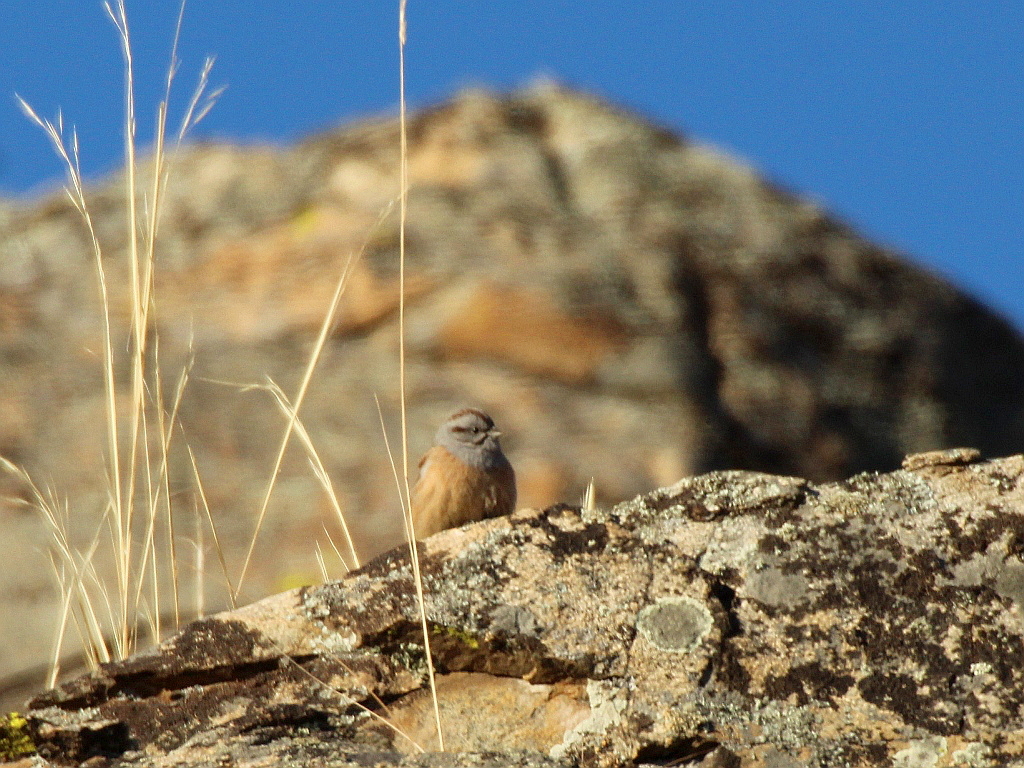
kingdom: Animalia
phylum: Chordata
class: Aves
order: Passeriformes
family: Emberizidae
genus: Emberiza
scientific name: Emberiza godlewskii
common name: Godlewski's bunting
